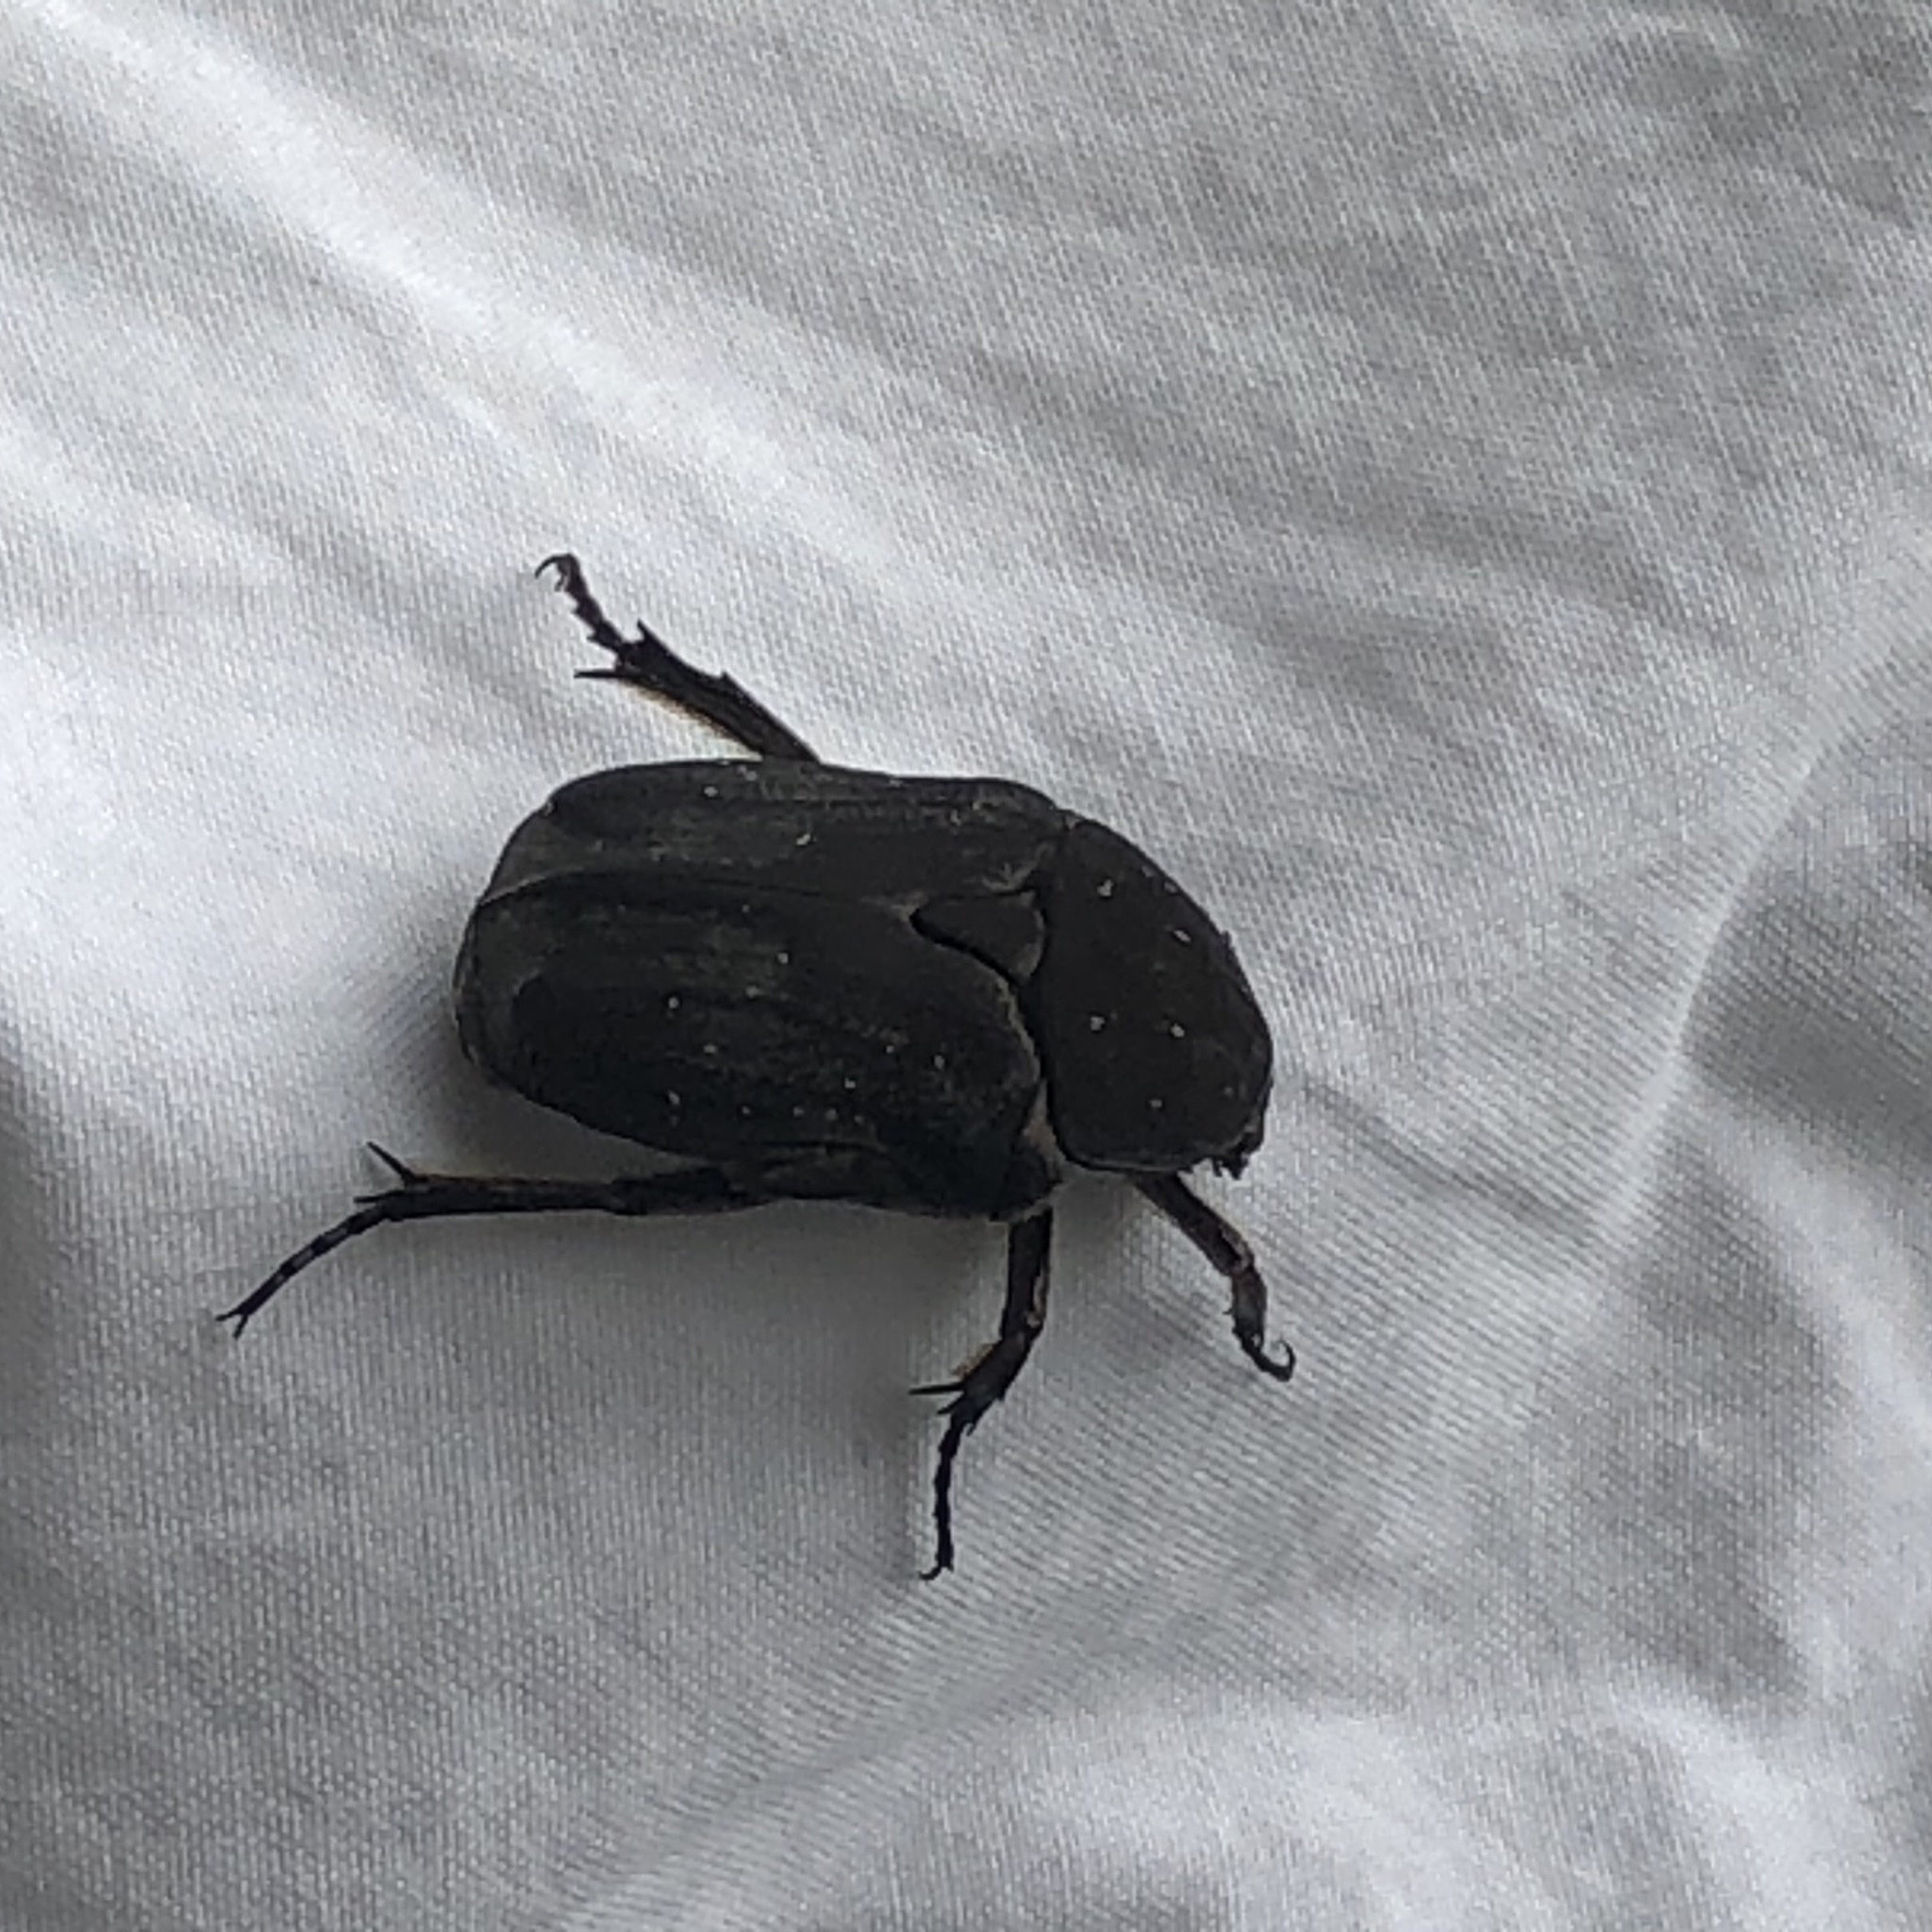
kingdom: Animalia
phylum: Arthropoda
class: Insecta
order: Coleoptera
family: Scarabaeidae
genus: Protaetia
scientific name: Protaetia morio
